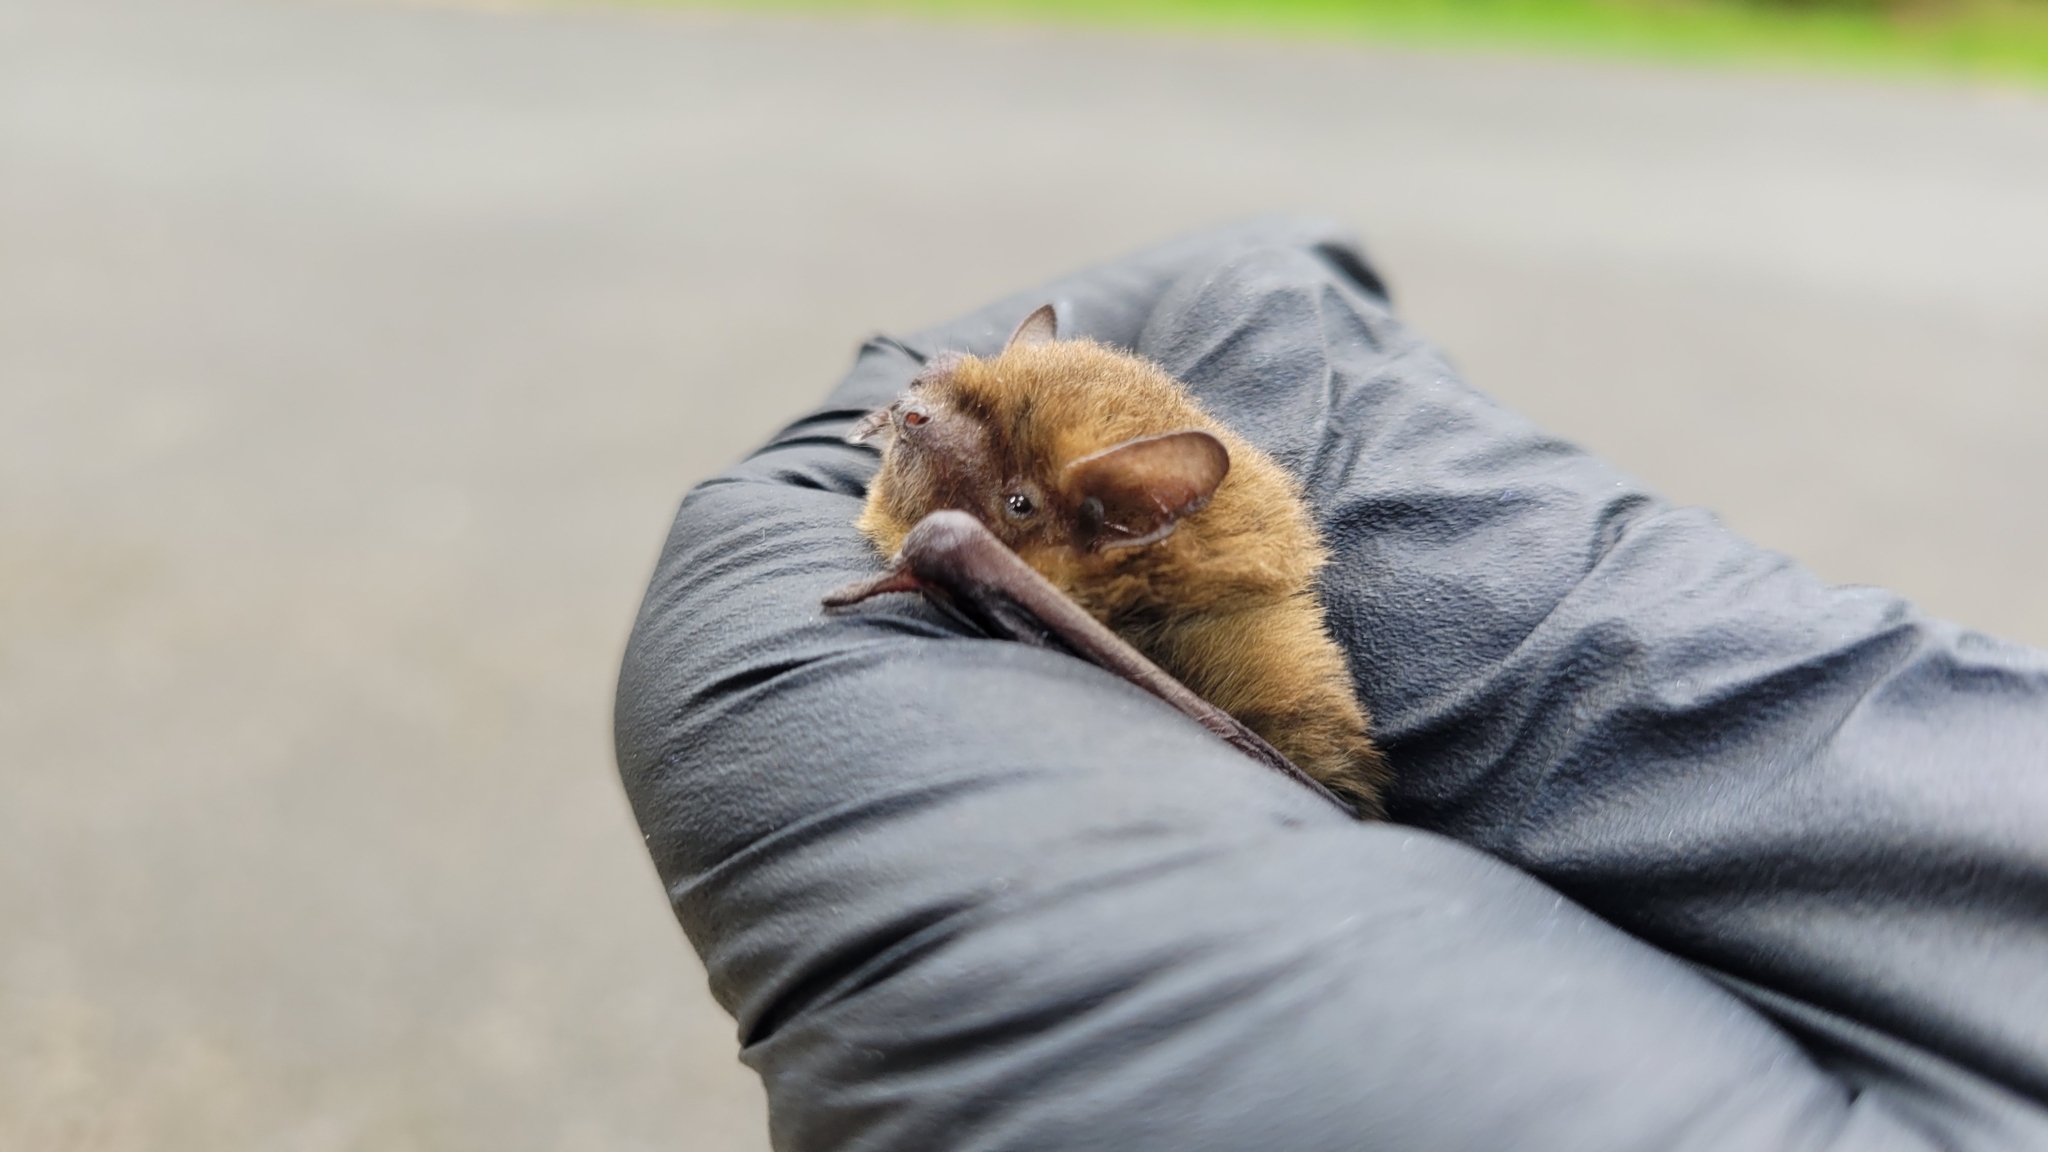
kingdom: Animalia
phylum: Chordata
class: Mammalia
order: Chiroptera
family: Vespertilionidae
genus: Pipistrellus
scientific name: Pipistrellus pygmaeus
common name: Soprano pipistrelle
